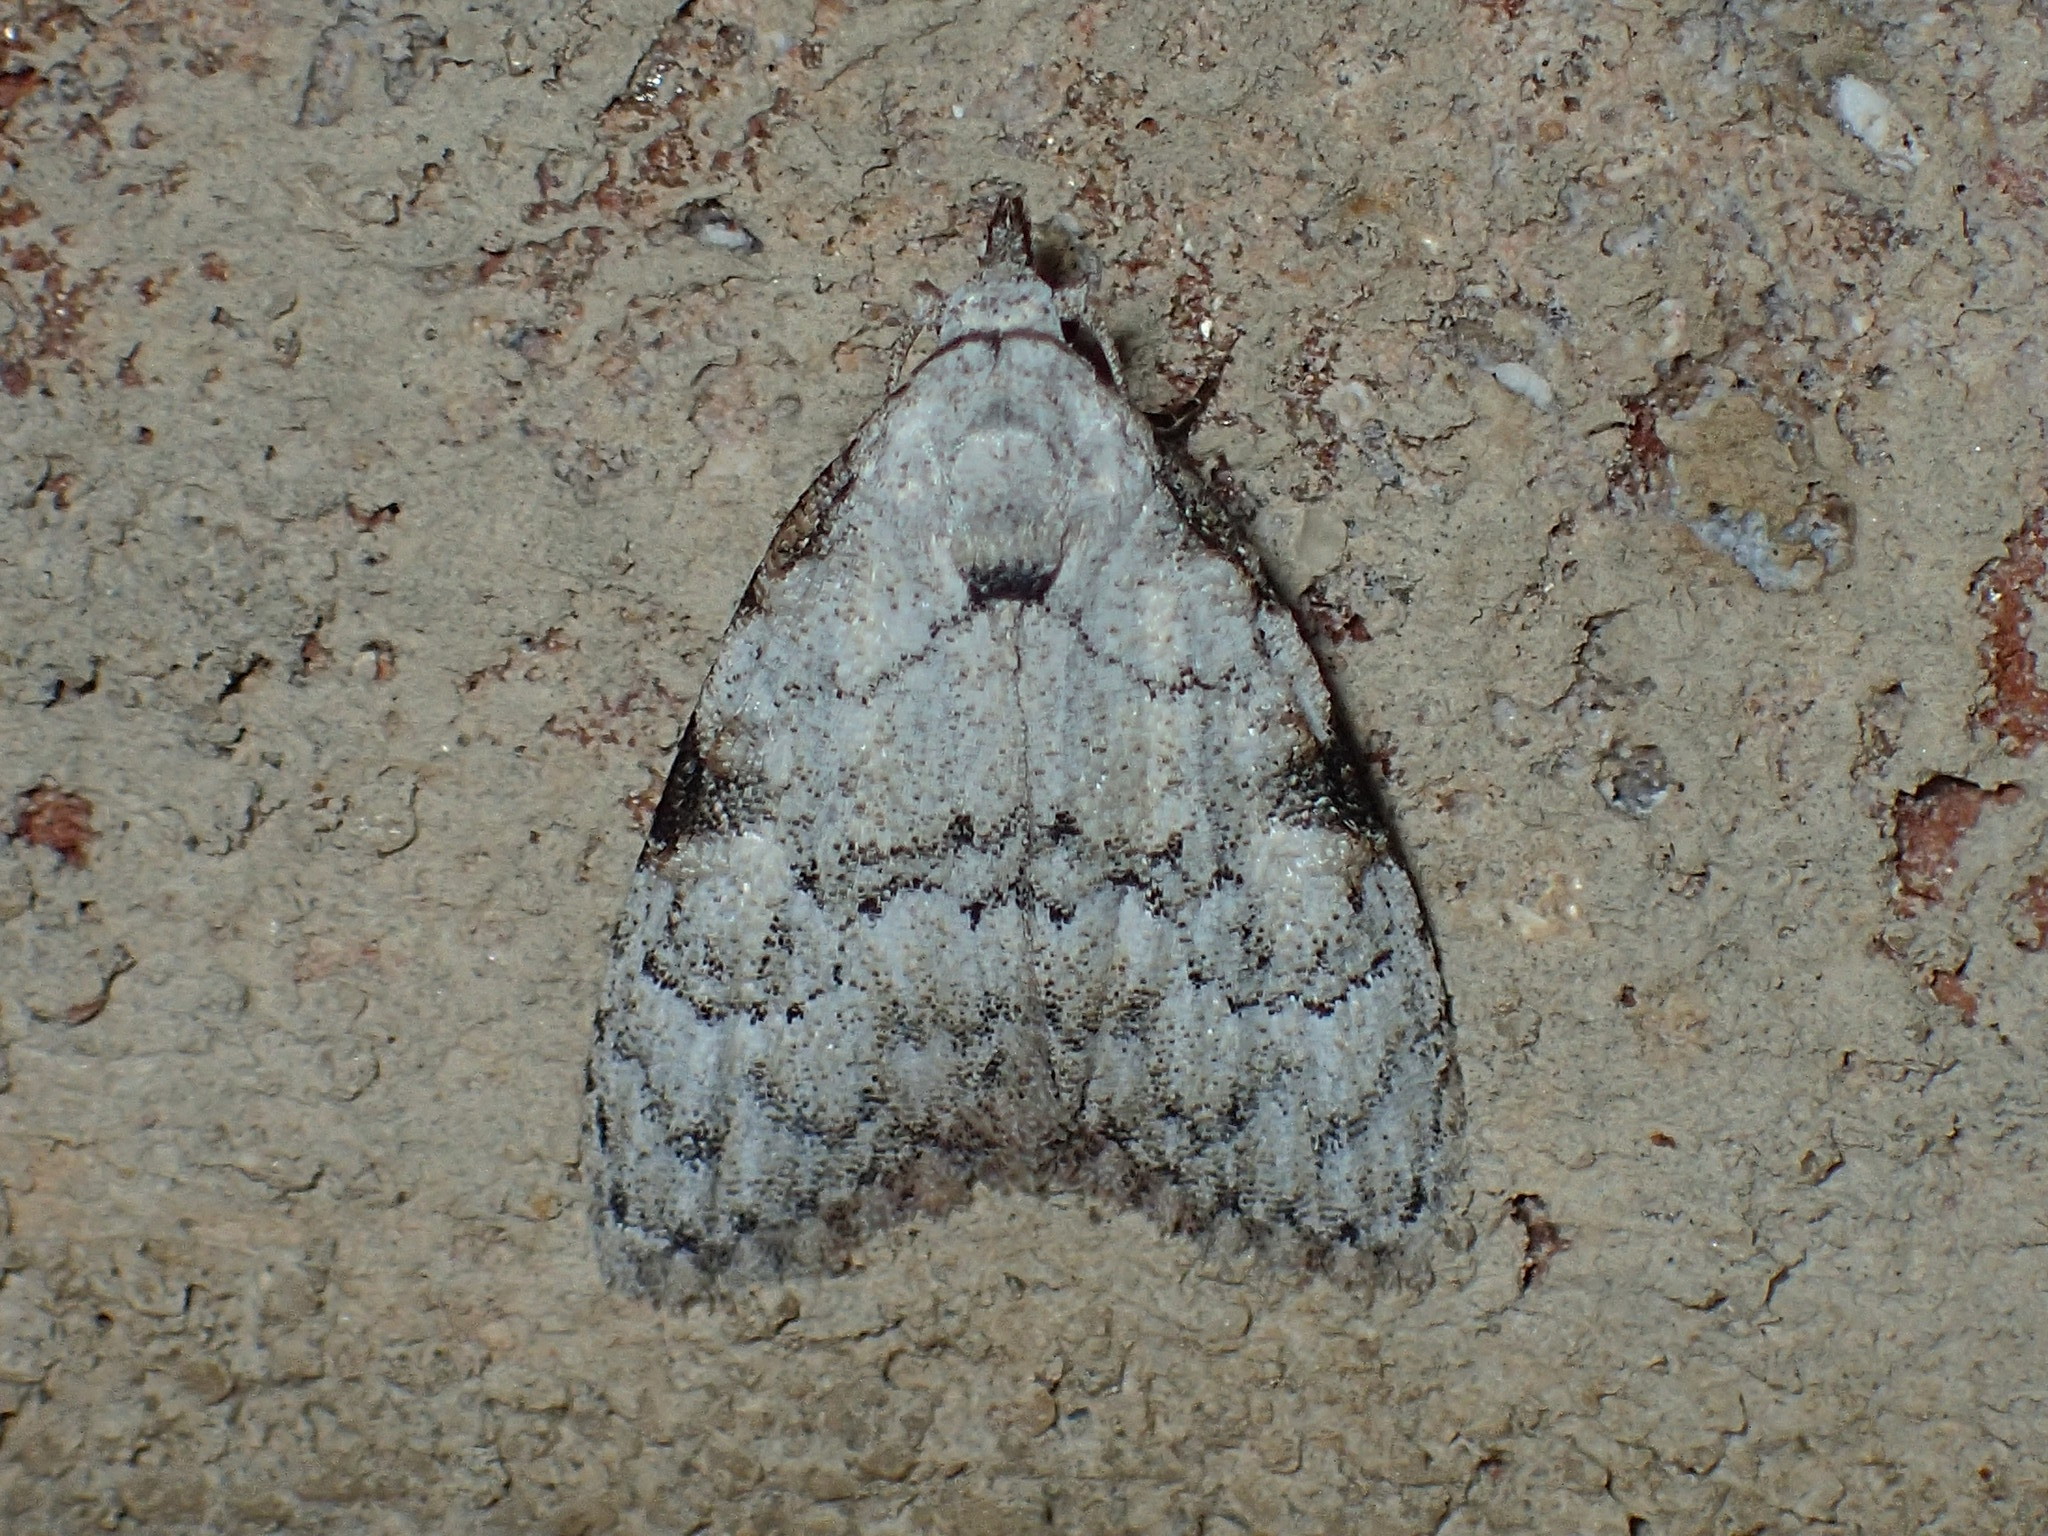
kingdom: Animalia
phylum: Arthropoda
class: Insecta
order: Lepidoptera
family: Nolidae
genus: Meganola
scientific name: Meganola minuscula
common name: Confused meganola moth
